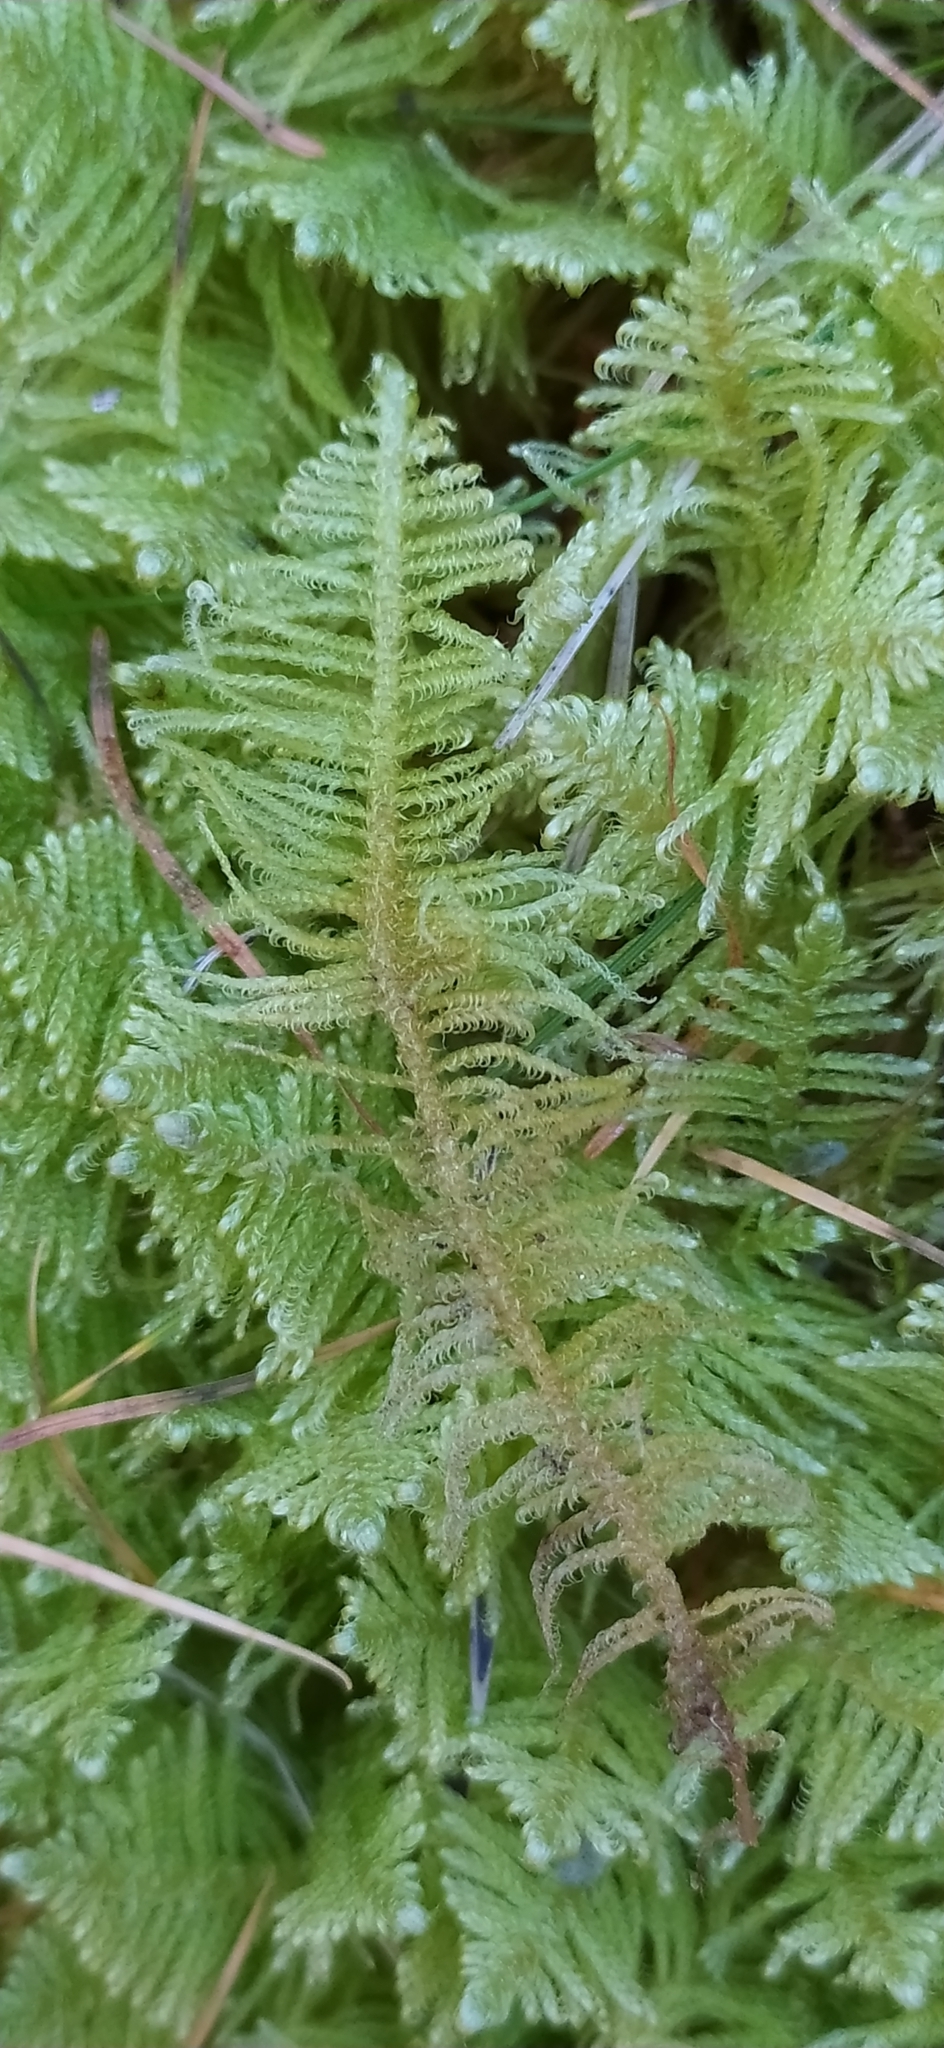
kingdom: Plantae
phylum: Bryophyta
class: Bryopsida
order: Hypnales
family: Pylaisiaceae
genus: Ptilium
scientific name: Ptilium crista-castrensis
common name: Knight's plume moss
